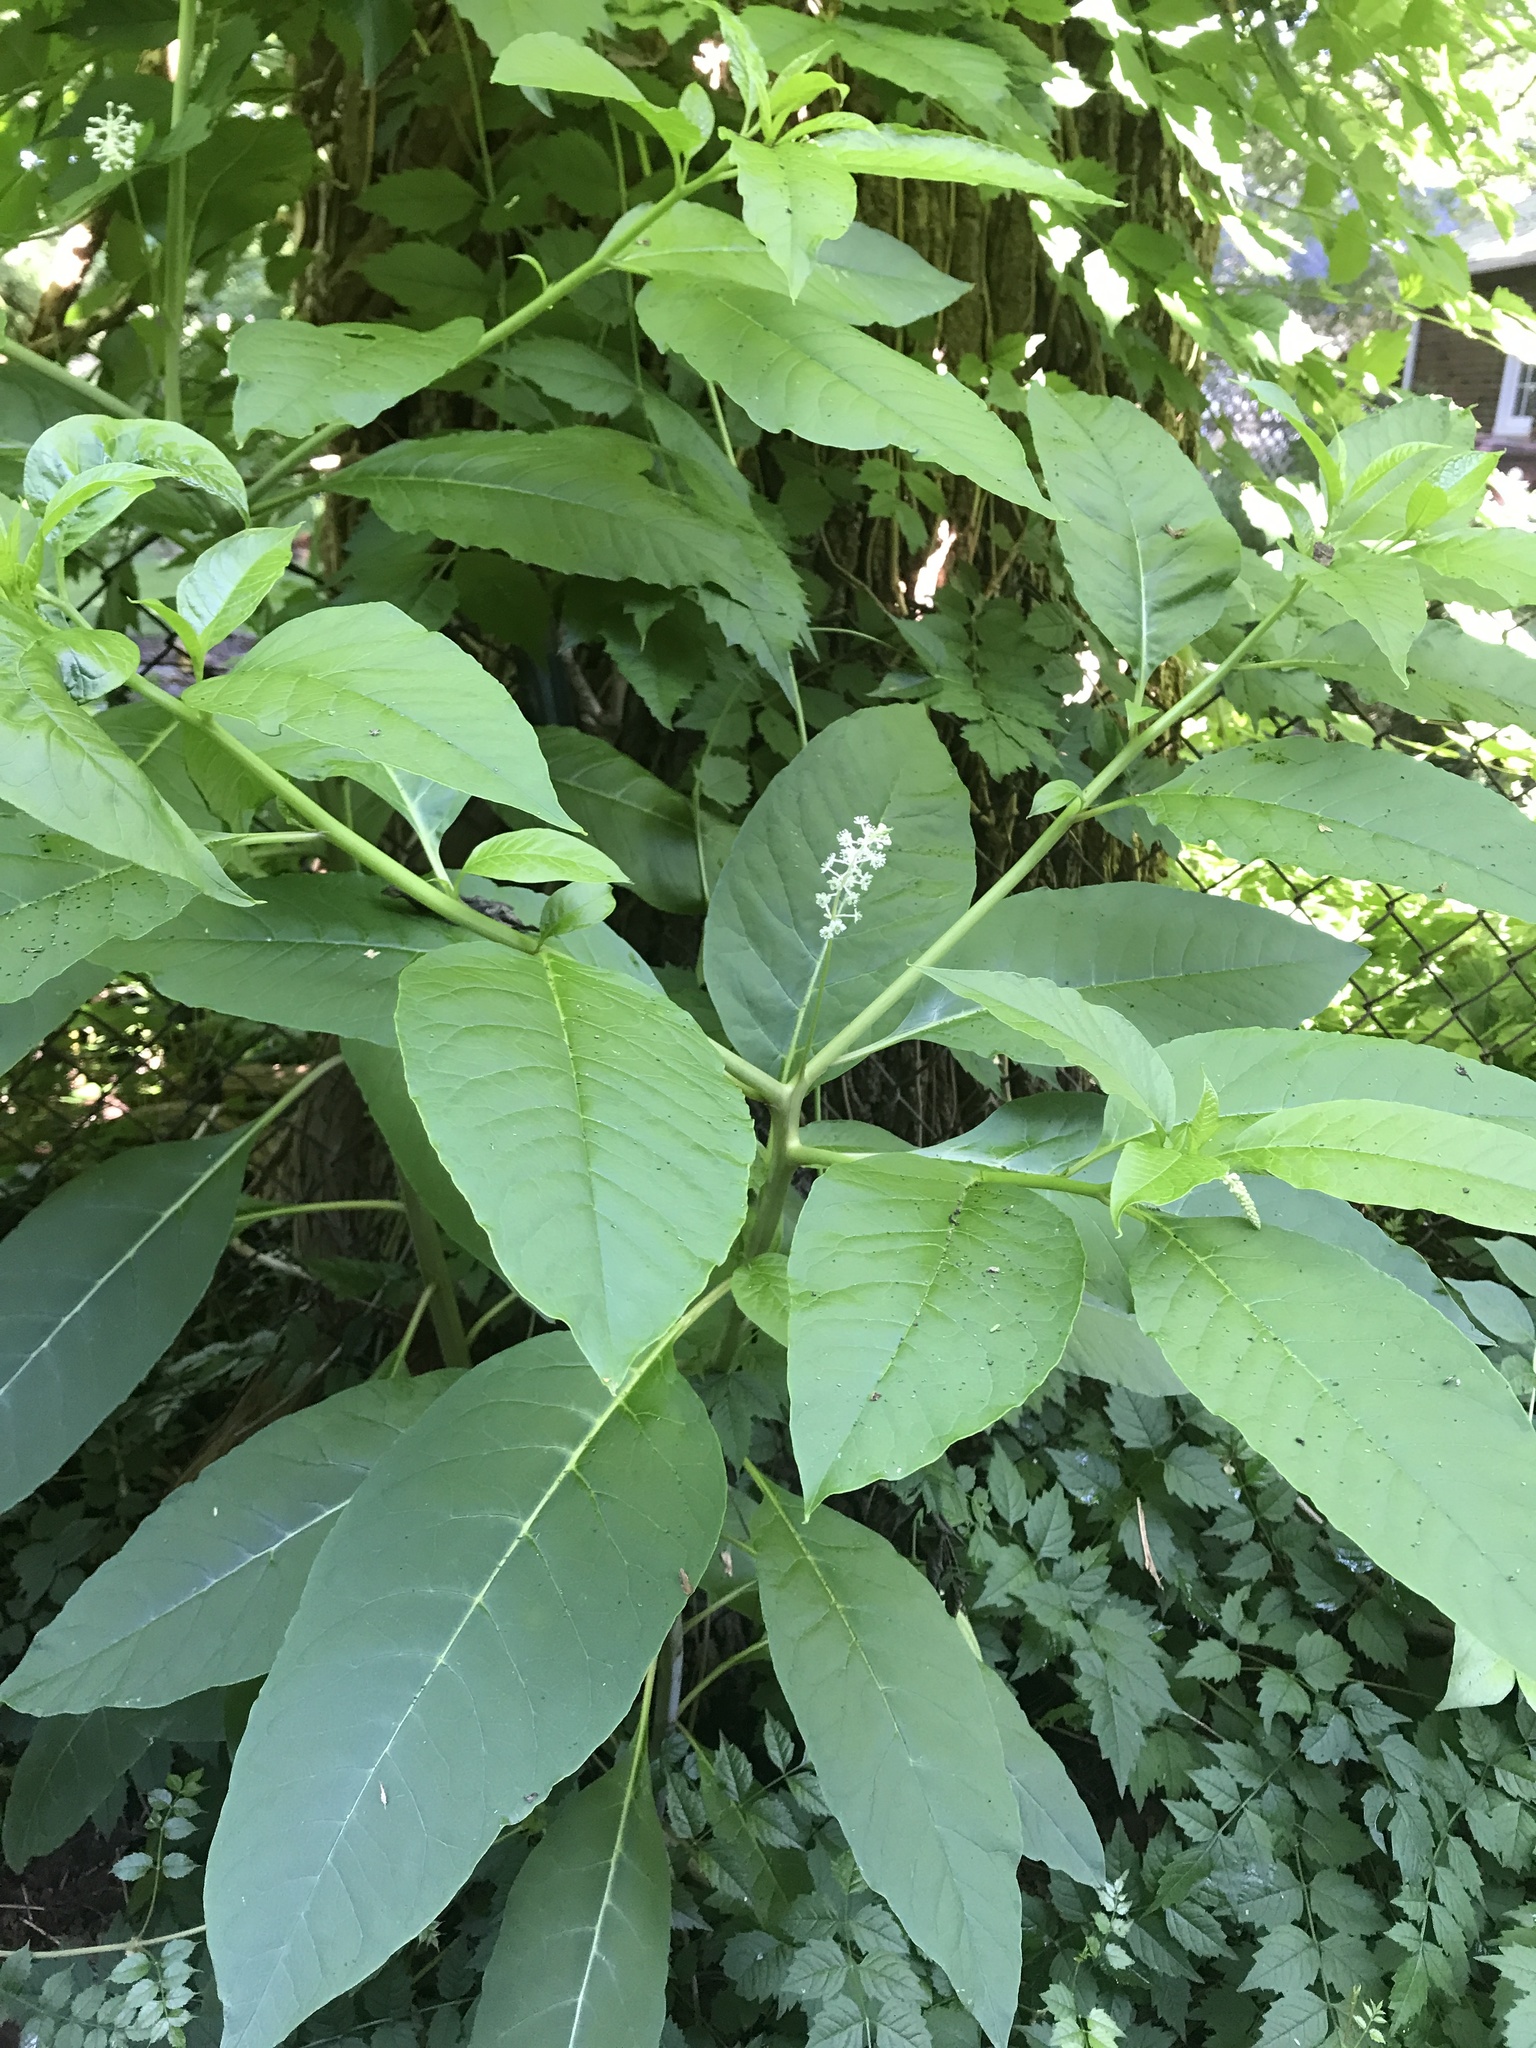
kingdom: Plantae
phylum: Tracheophyta
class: Magnoliopsida
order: Caryophyllales
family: Phytolaccaceae
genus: Phytolacca
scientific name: Phytolacca americana
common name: American pokeweed
